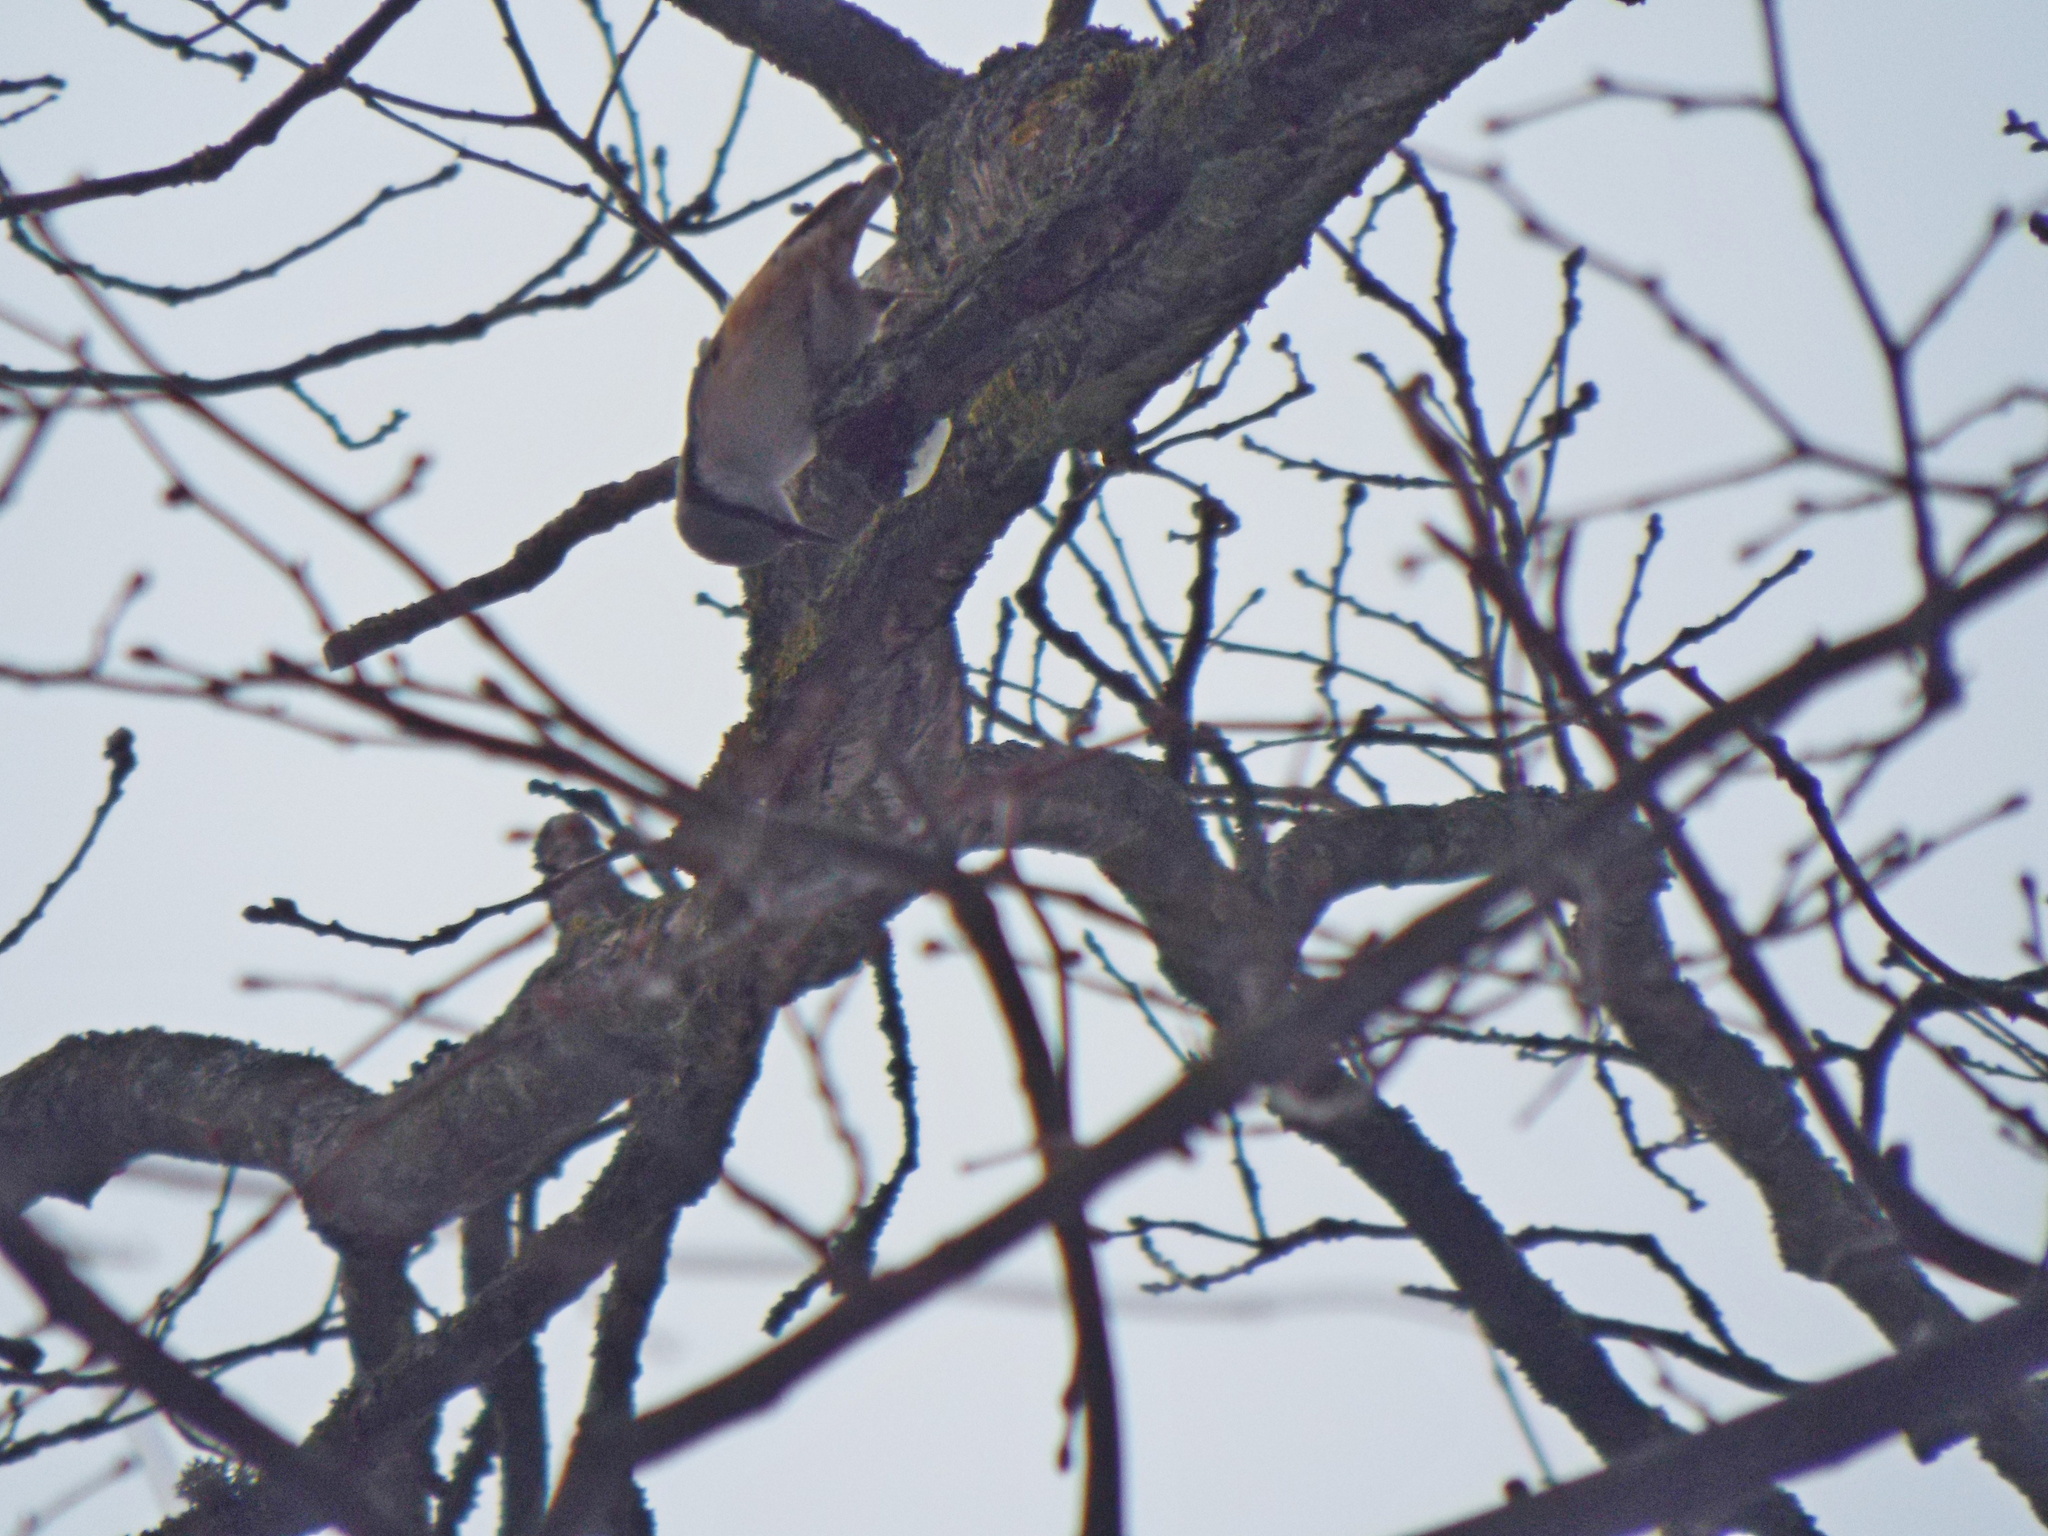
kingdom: Animalia
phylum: Chordata
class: Aves
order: Passeriformes
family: Sittidae
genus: Sitta
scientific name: Sitta europaea
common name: Eurasian nuthatch
